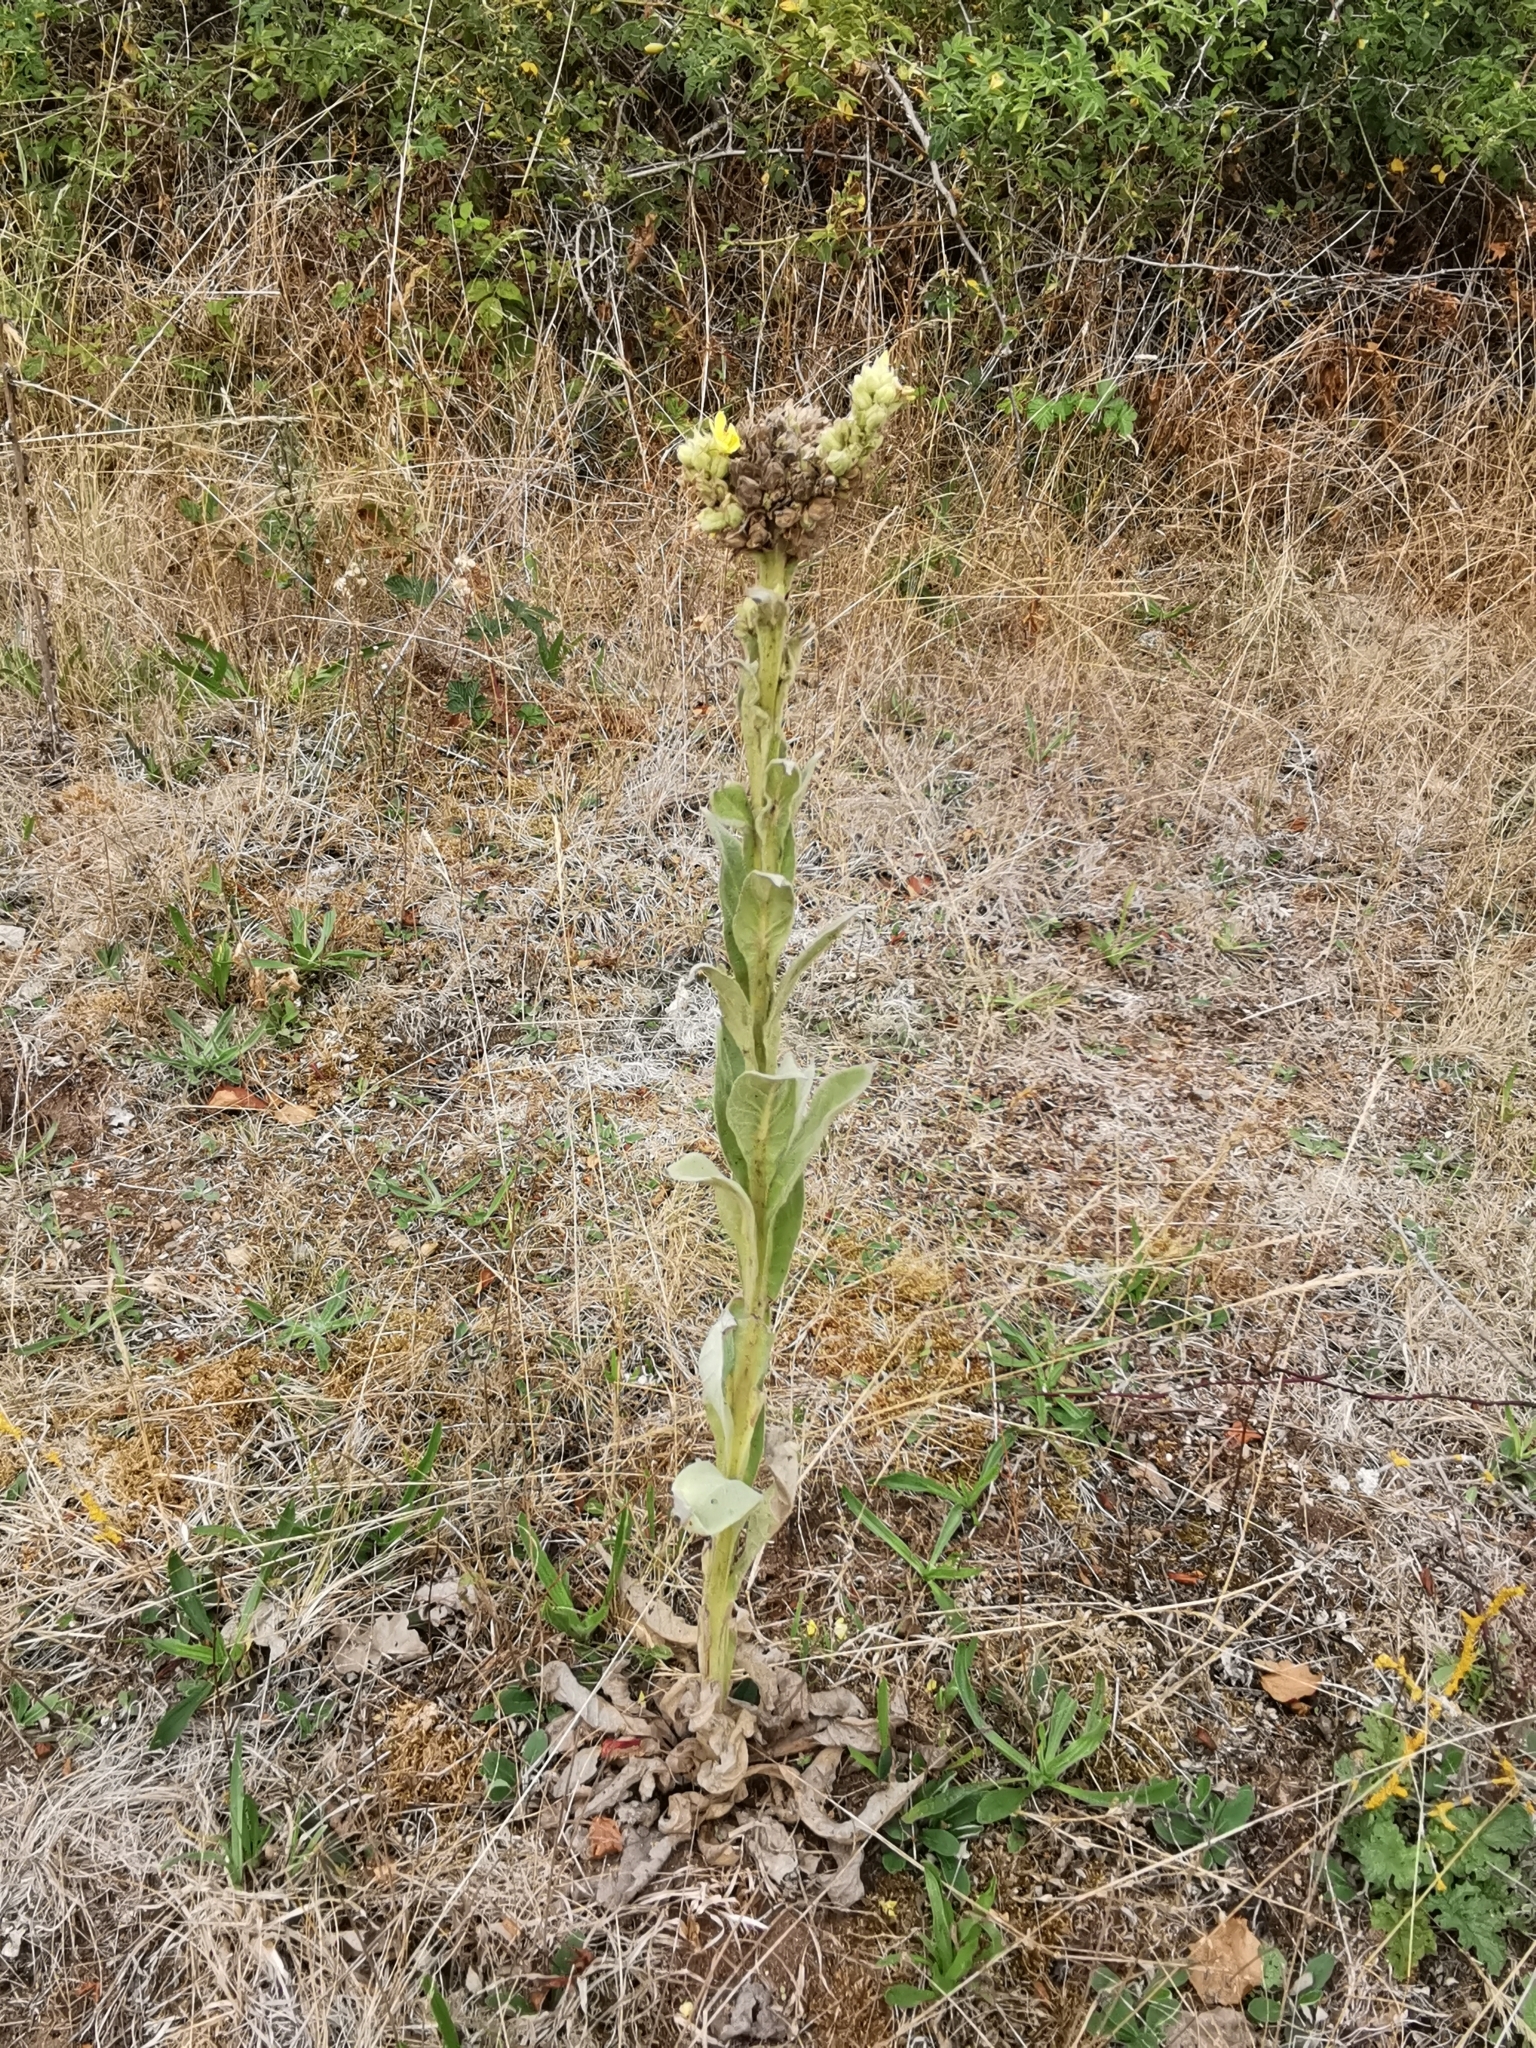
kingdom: Plantae
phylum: Tracheophyta
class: Magnoliopsida
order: Lamiales
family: Scrophulariaceae
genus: Verbascum
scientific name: Verbascum thapsus
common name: Common mullein
